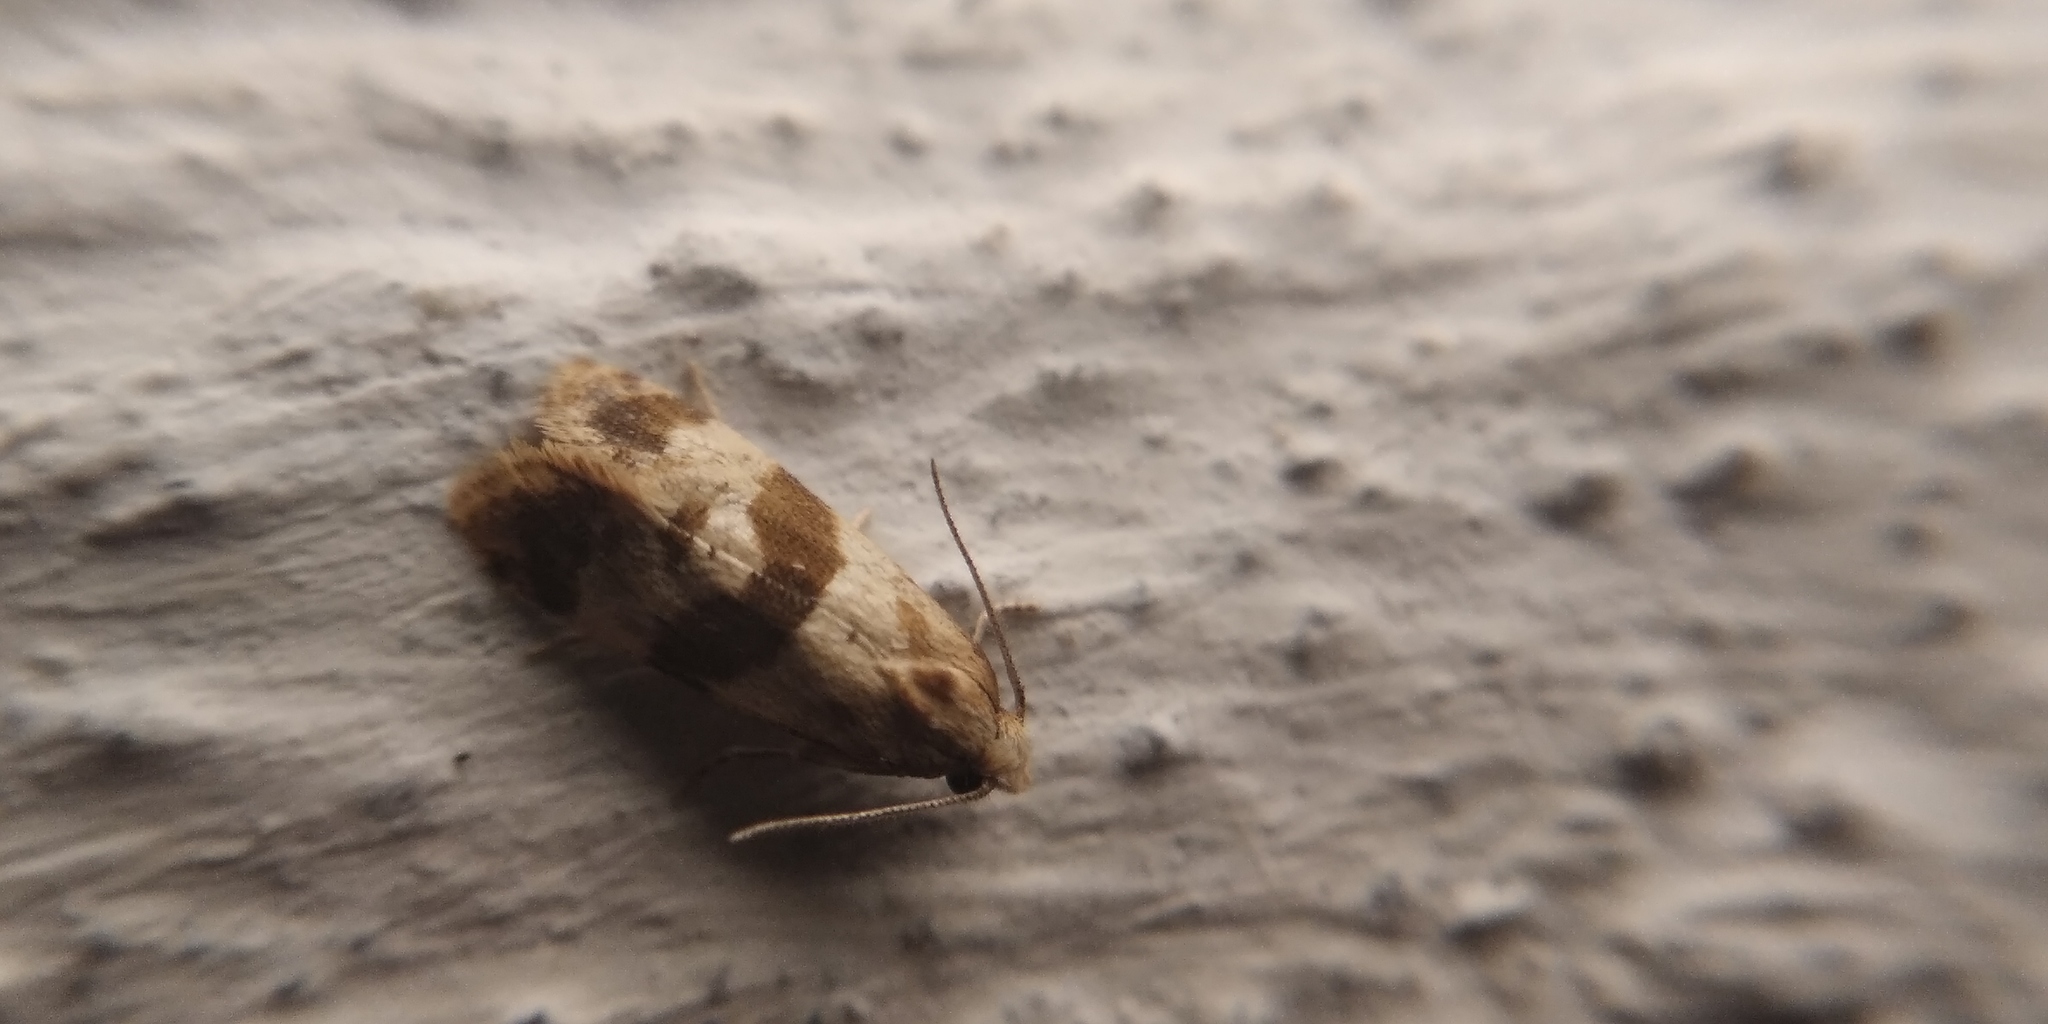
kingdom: Animalia
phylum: Arthropoda
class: Insecta
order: Lepidoptera
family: Tortricidae
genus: Phalonidia
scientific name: Phalonidia contractana
